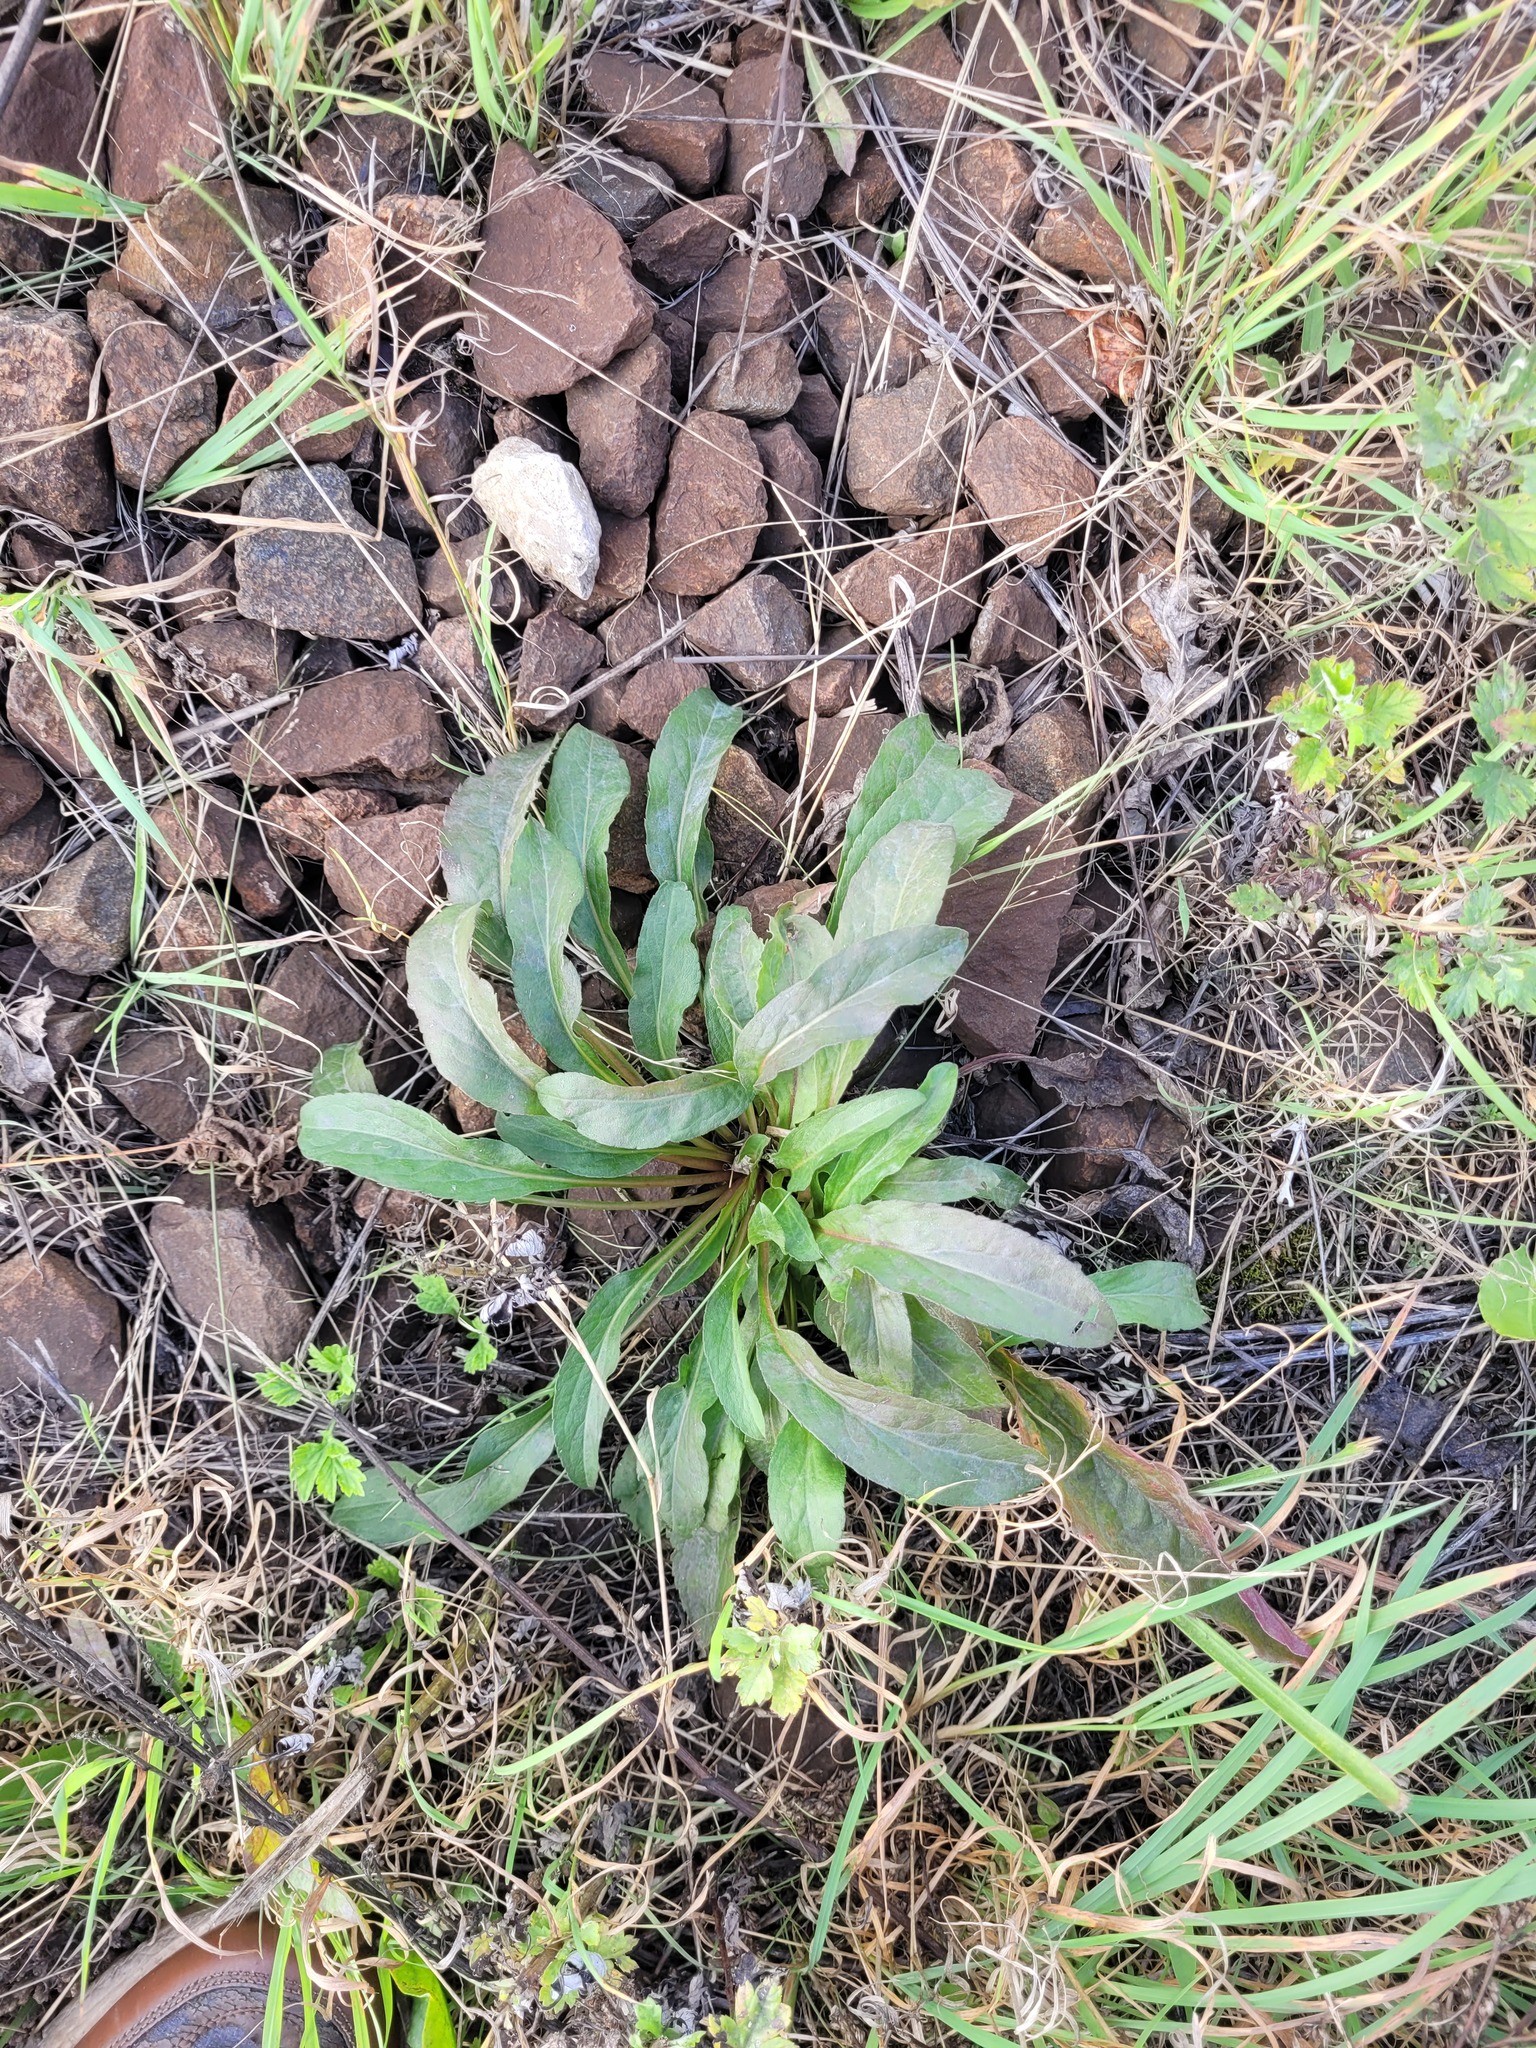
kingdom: Plantae
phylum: Tracheophyta
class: Magnoliopsida
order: Asterales
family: Asteraceae
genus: Solidago
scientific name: Solidago virgaurea
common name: Goldenrod
